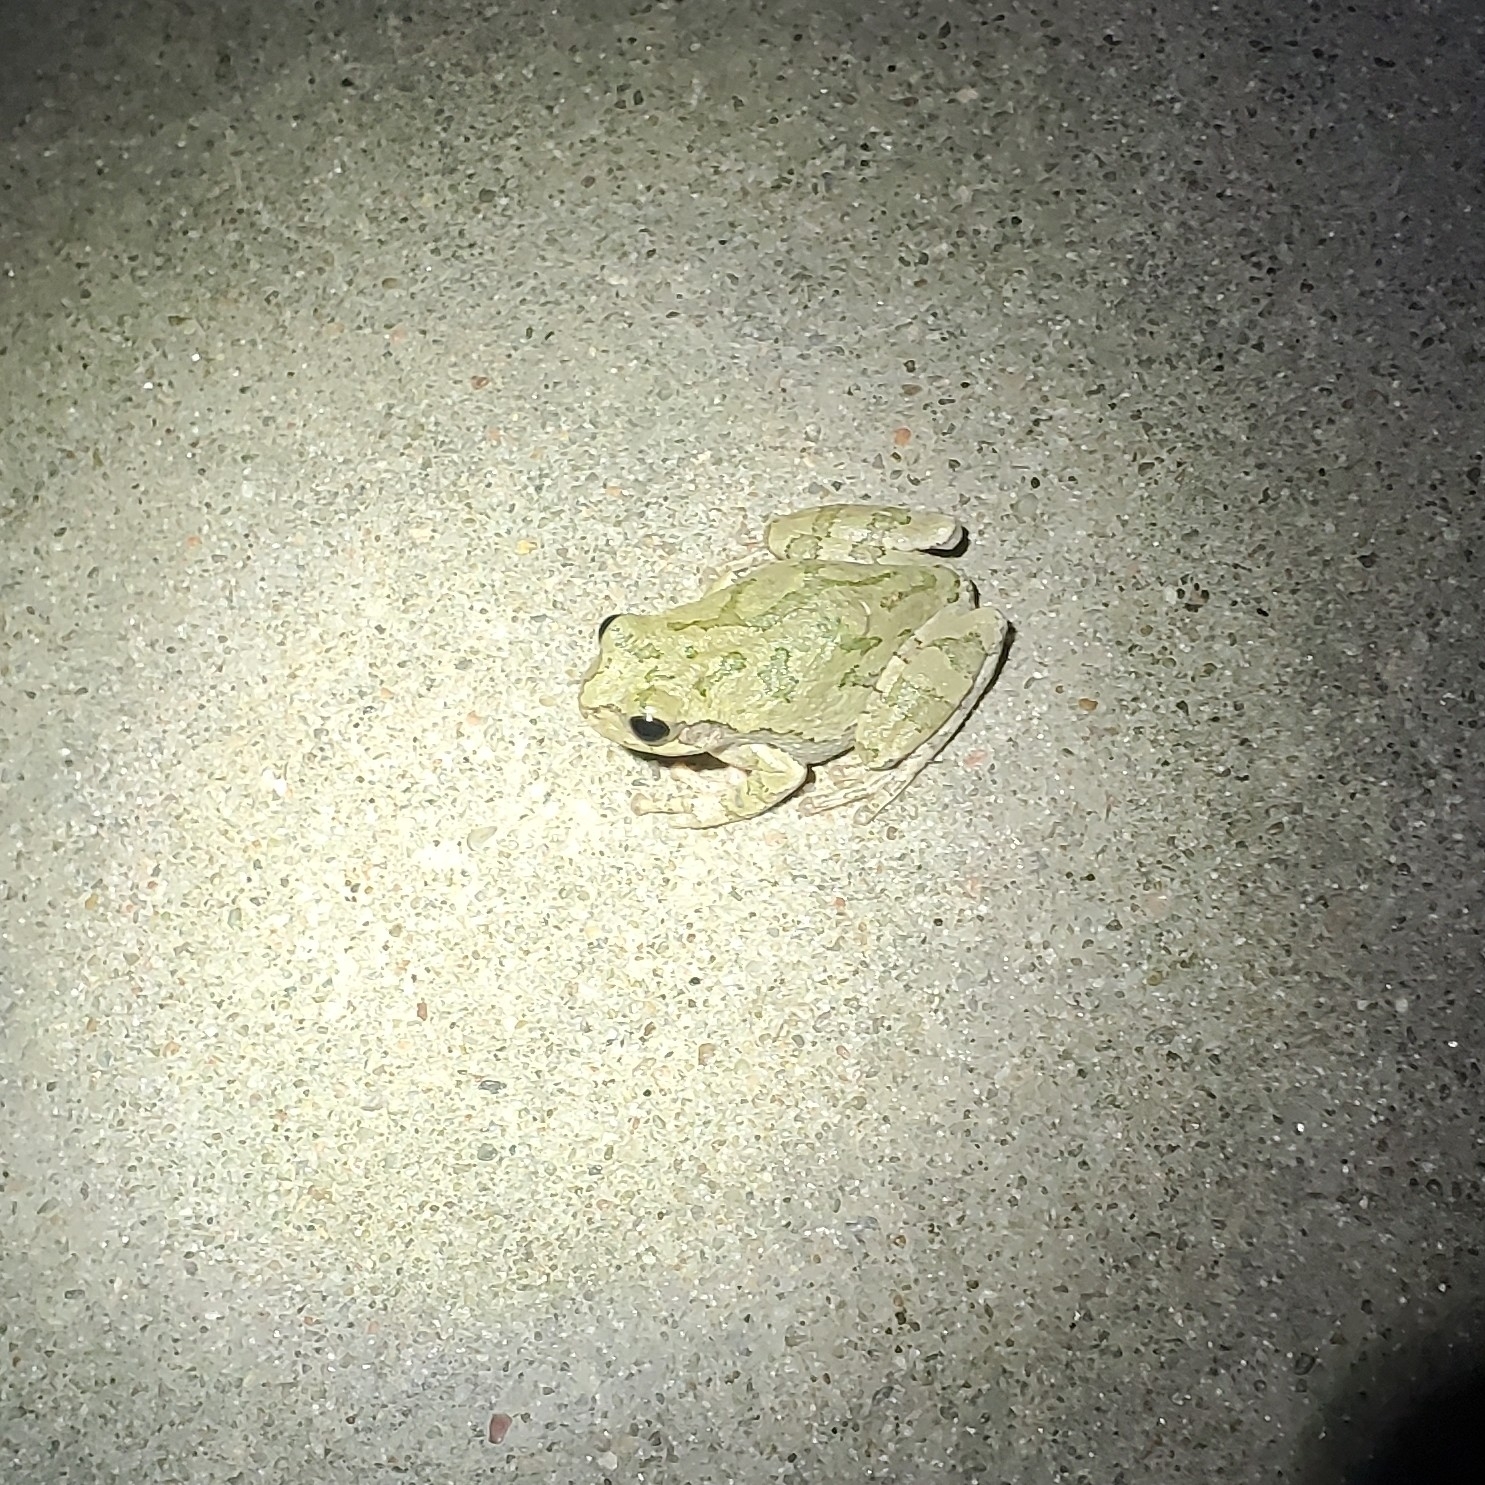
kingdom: Animalia
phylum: Chordata
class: Amphibia
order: Anura
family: Hylidae
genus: Dryophytes
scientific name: Dryophytes chrysoscelis
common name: Cope's gray treefrog
